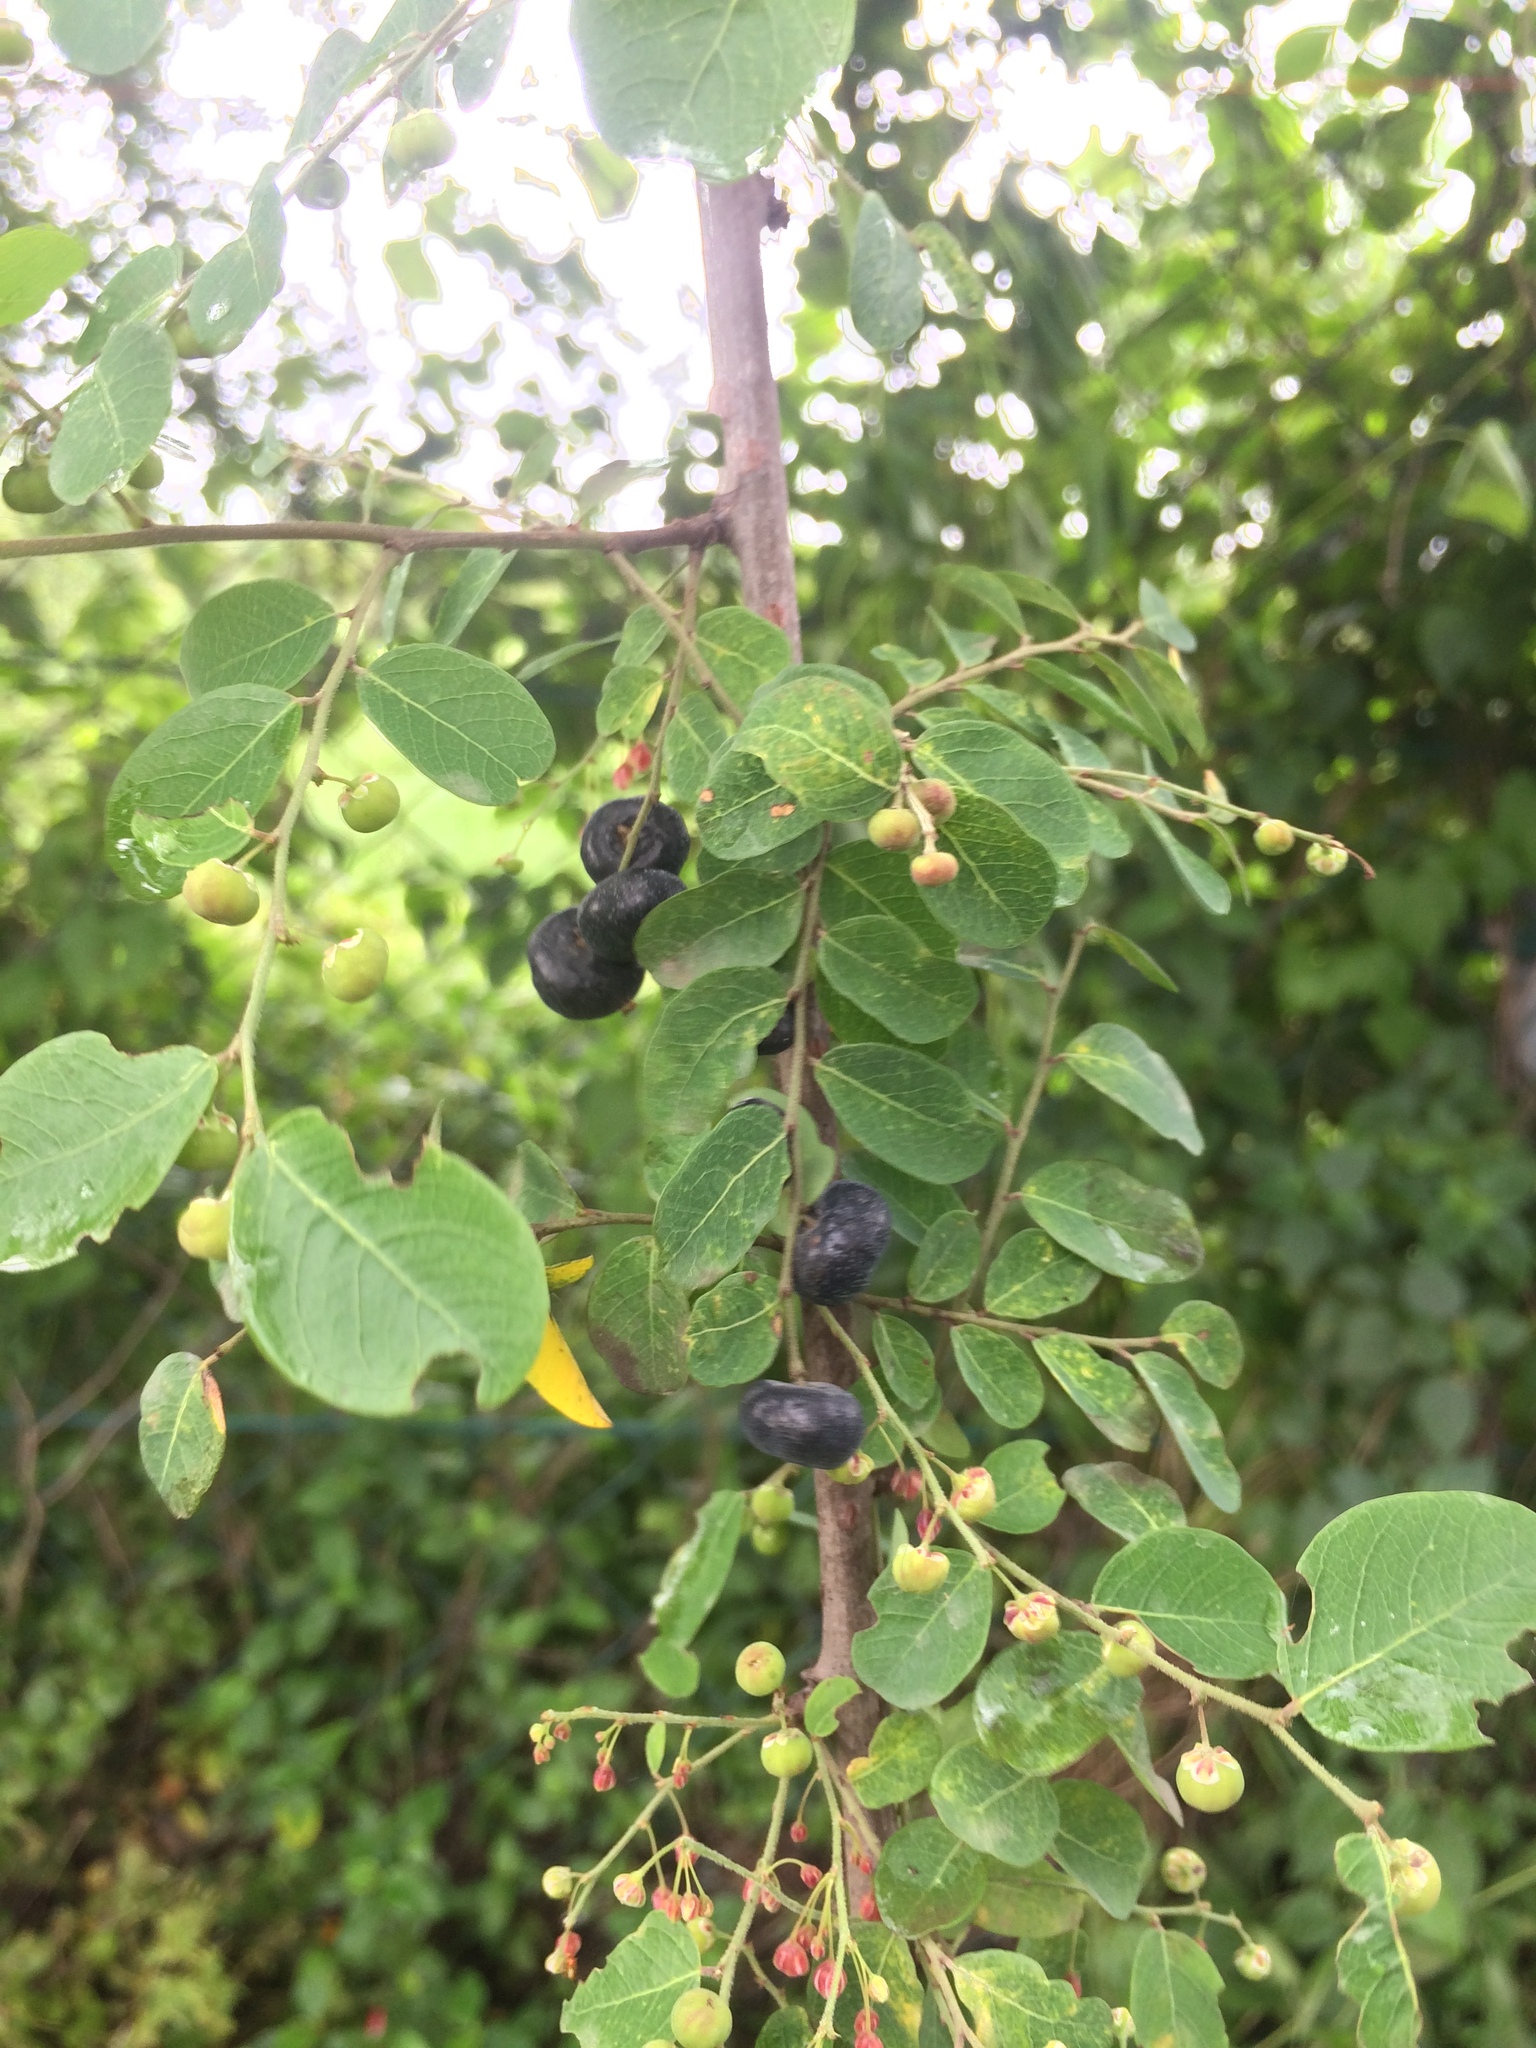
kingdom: Plantae
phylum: Tracheophyta
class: Magnoliopsida
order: Malpighiales
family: Phyllanthaceae
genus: Phyllanthus
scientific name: Phyllanthus reticulatus
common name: Potato bush
